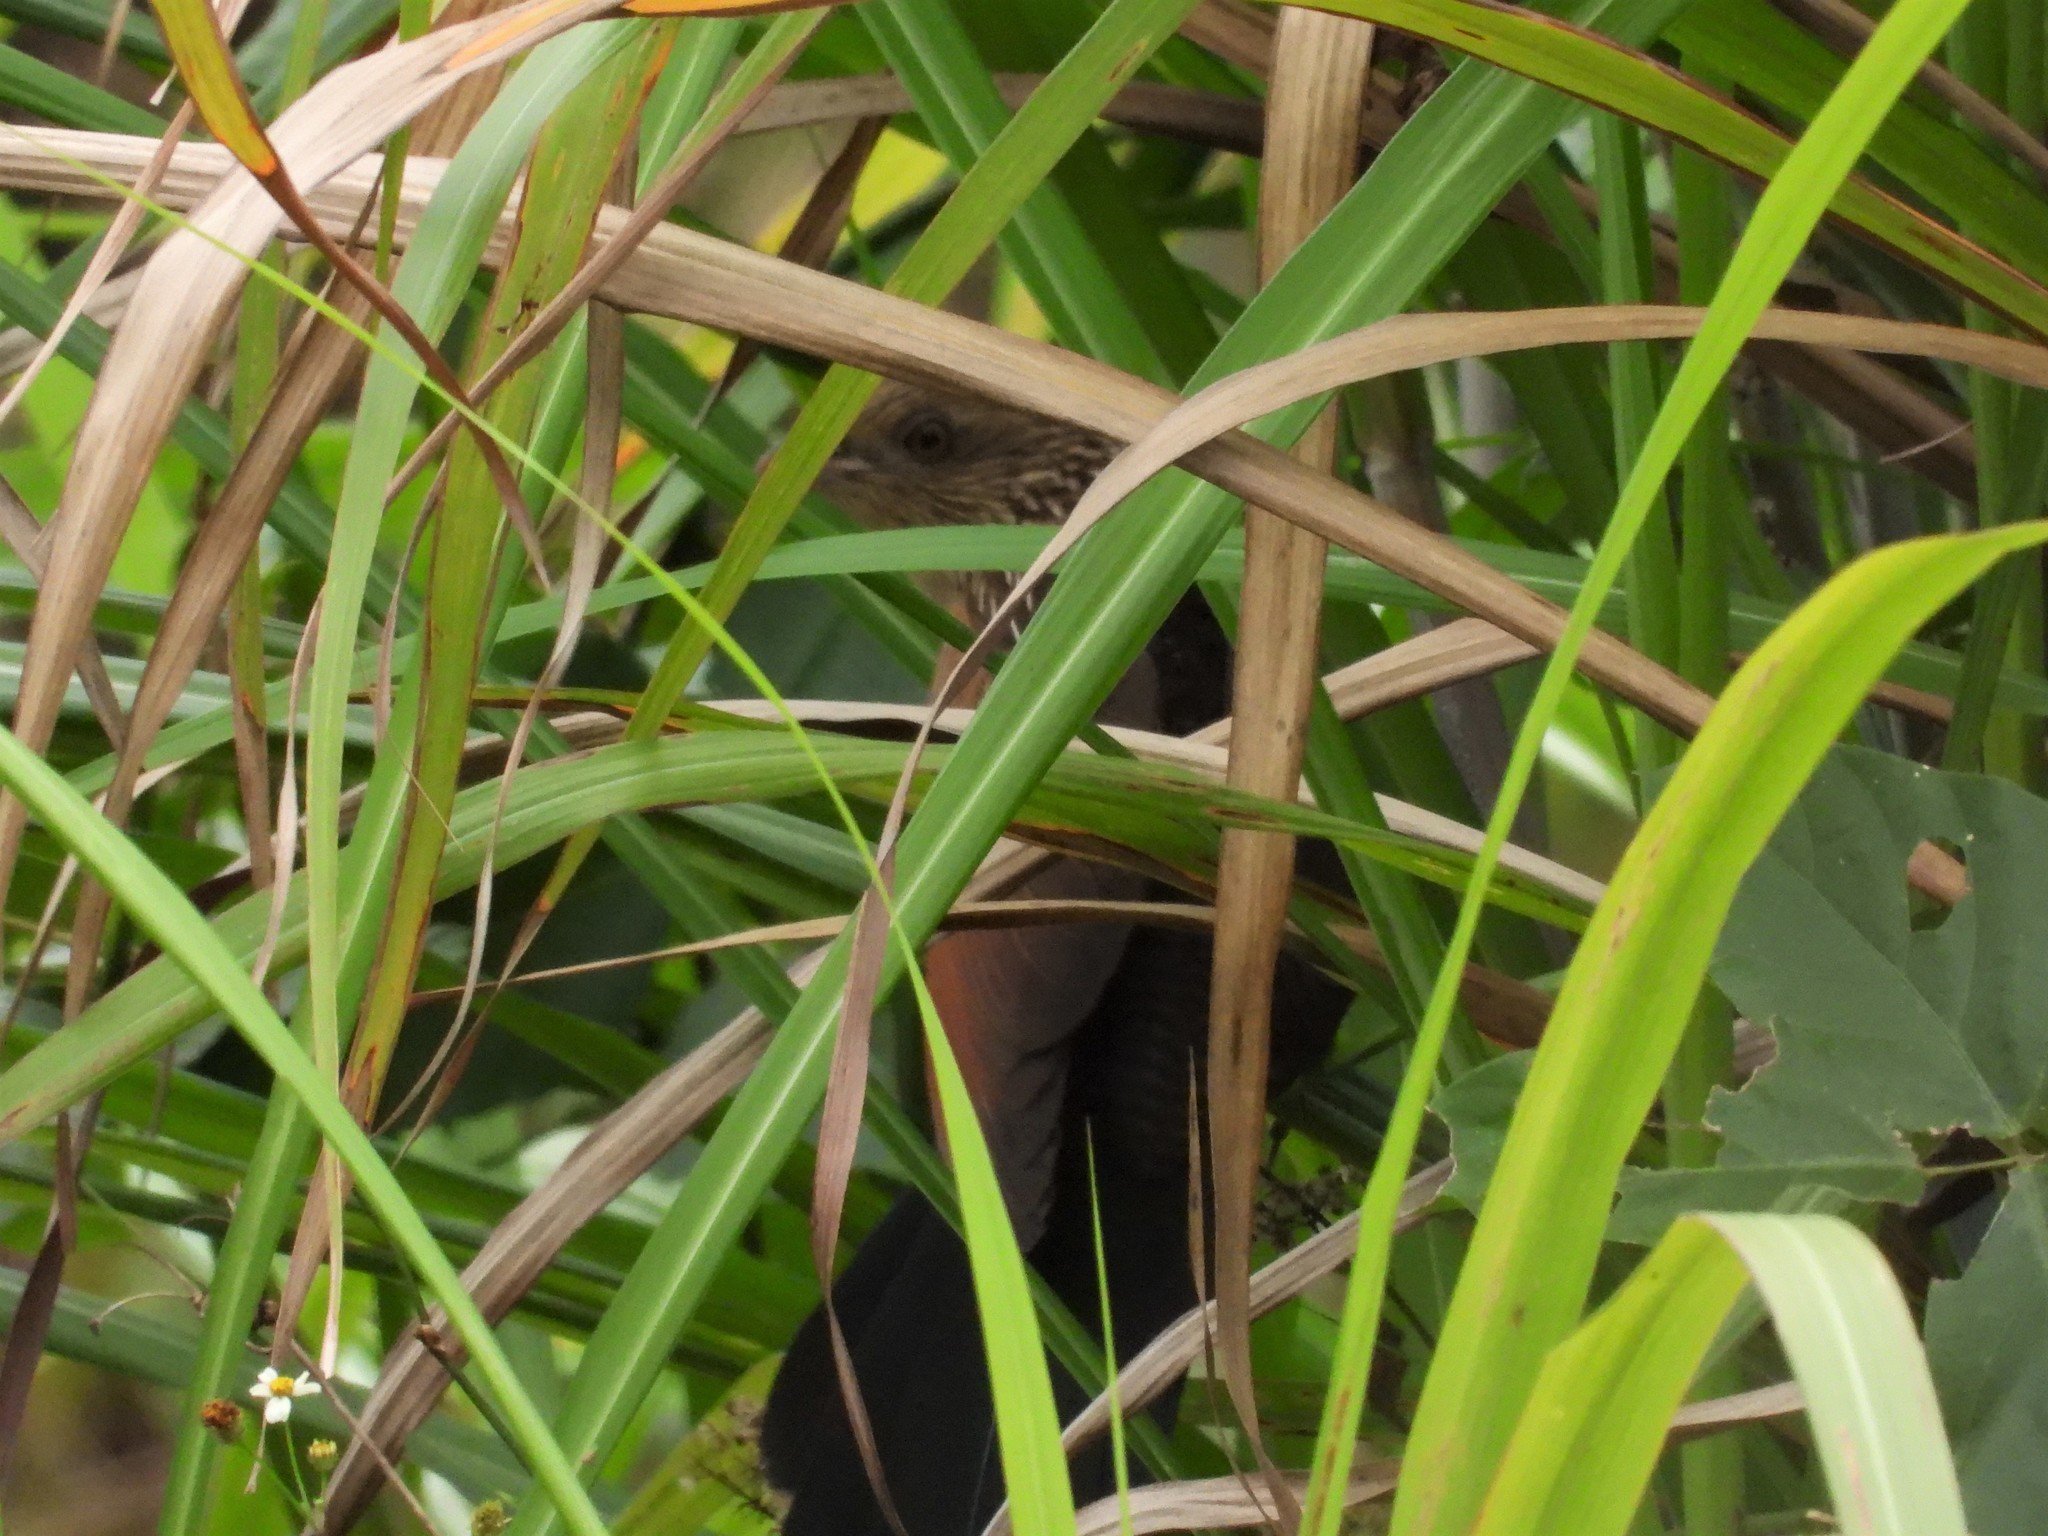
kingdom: Animalia
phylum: Chordata
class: Aves
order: Cuculiformes
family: Cuculidae
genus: Centropus
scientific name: Centropus bengalensis
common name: Lesser coucal
